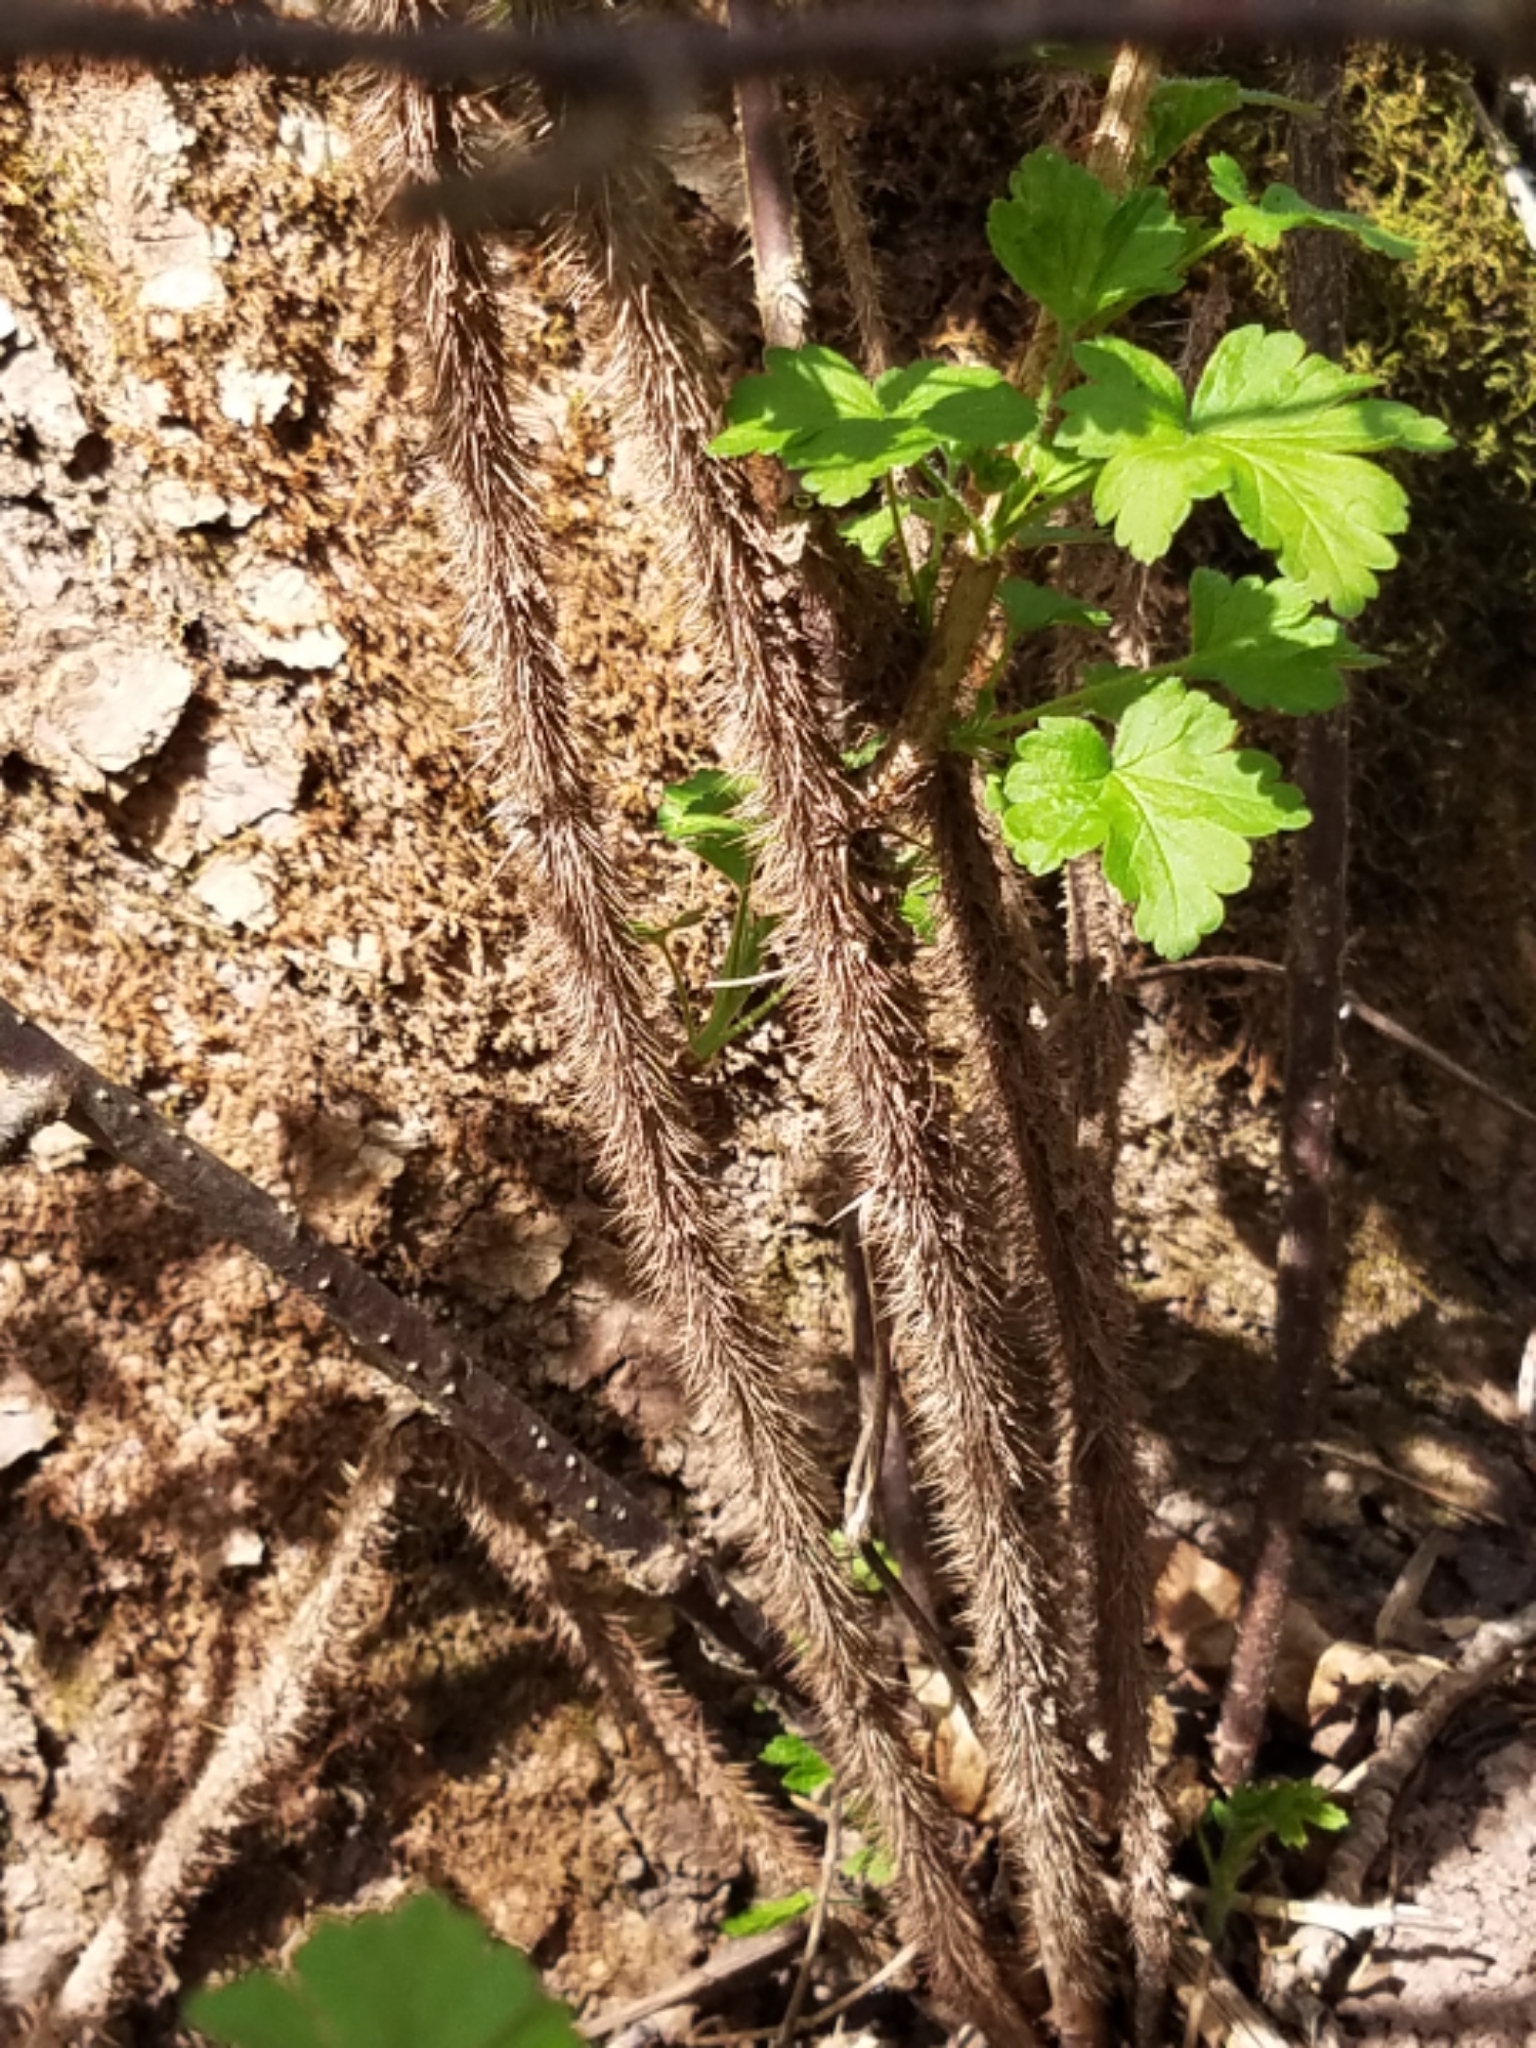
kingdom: Plantae
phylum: Tracheophyta
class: Magnoliopsida
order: Saxifragales
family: Grossulariaceae
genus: Ribes
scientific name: Ribes cynosbati
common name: American gooseberry
